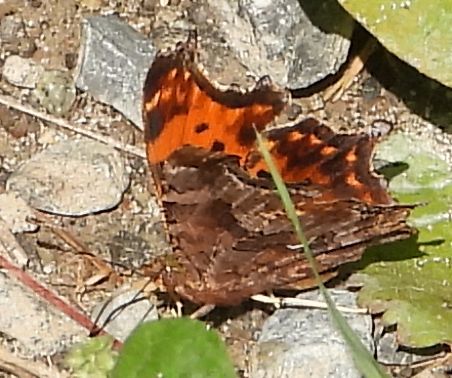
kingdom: Animalia
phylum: Arthropoda
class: Insecta
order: Lepidoptera
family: Nymphalidae
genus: Polygonia
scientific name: Polygonia comma
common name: Eastern comma
